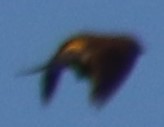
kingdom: Animalia
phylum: Chordata
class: Aves
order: Passeriformes
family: Parulidae
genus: Setophaga
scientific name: Setophaga coronata
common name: Myrtle warbler
